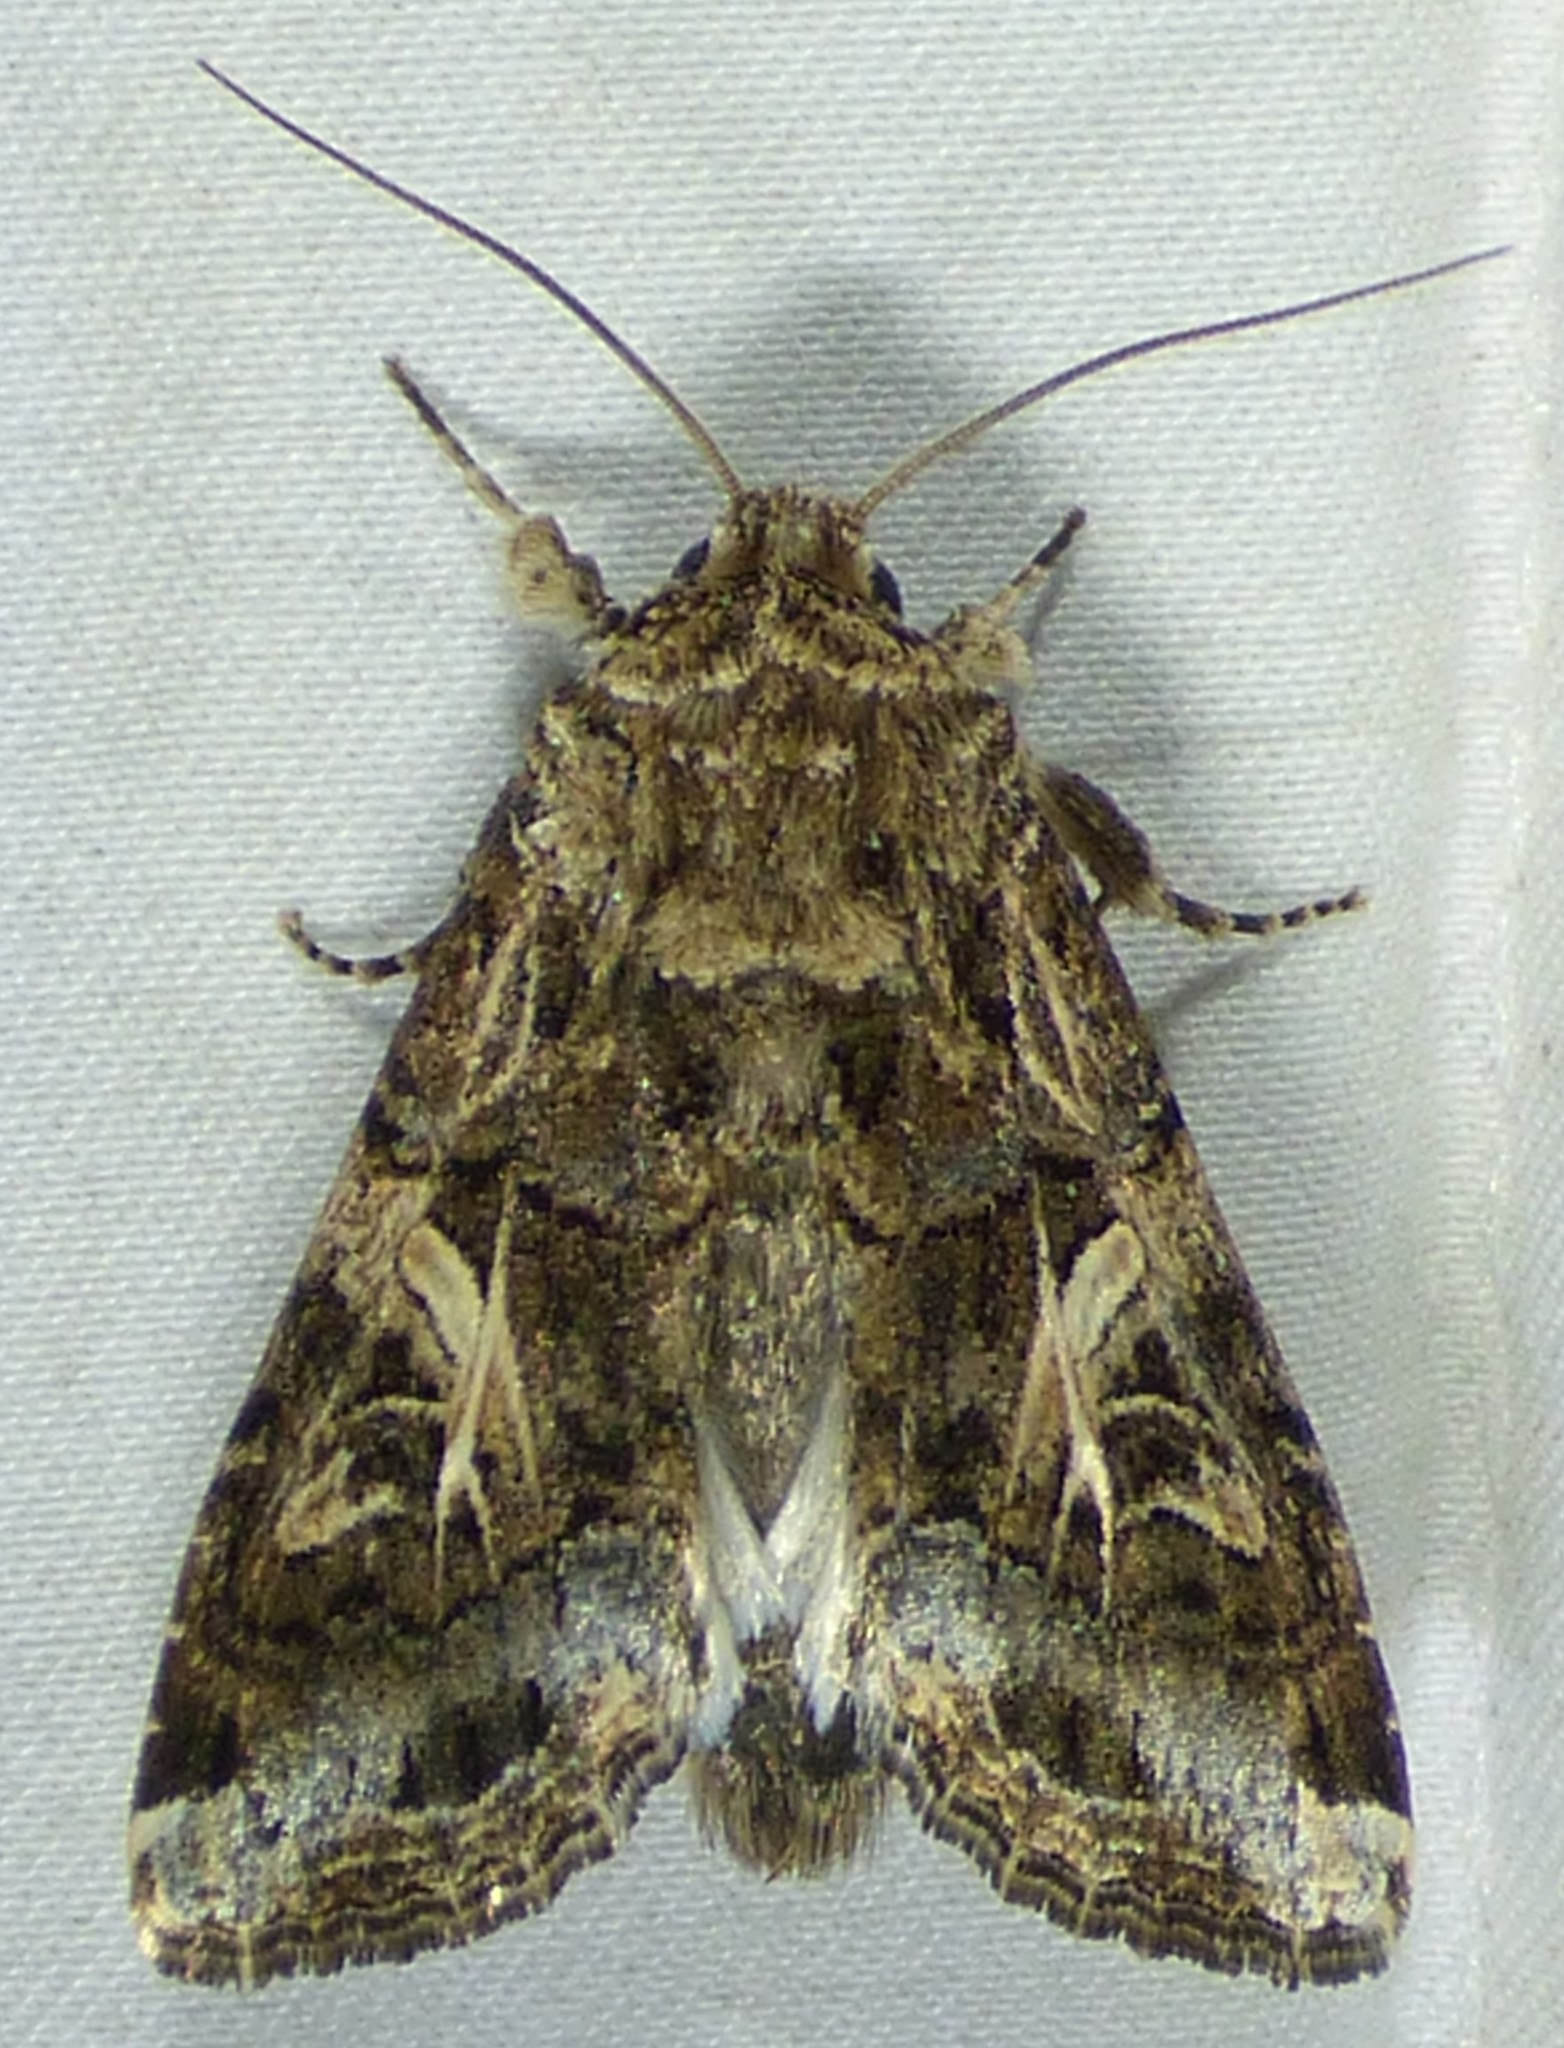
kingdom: Animalia
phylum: Arthropoda
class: Insecta
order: Lepidoptera
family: Noctuidae
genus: Spodoptera
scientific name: Spodoptera ornithogalli
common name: Yellow-striped armyworm
